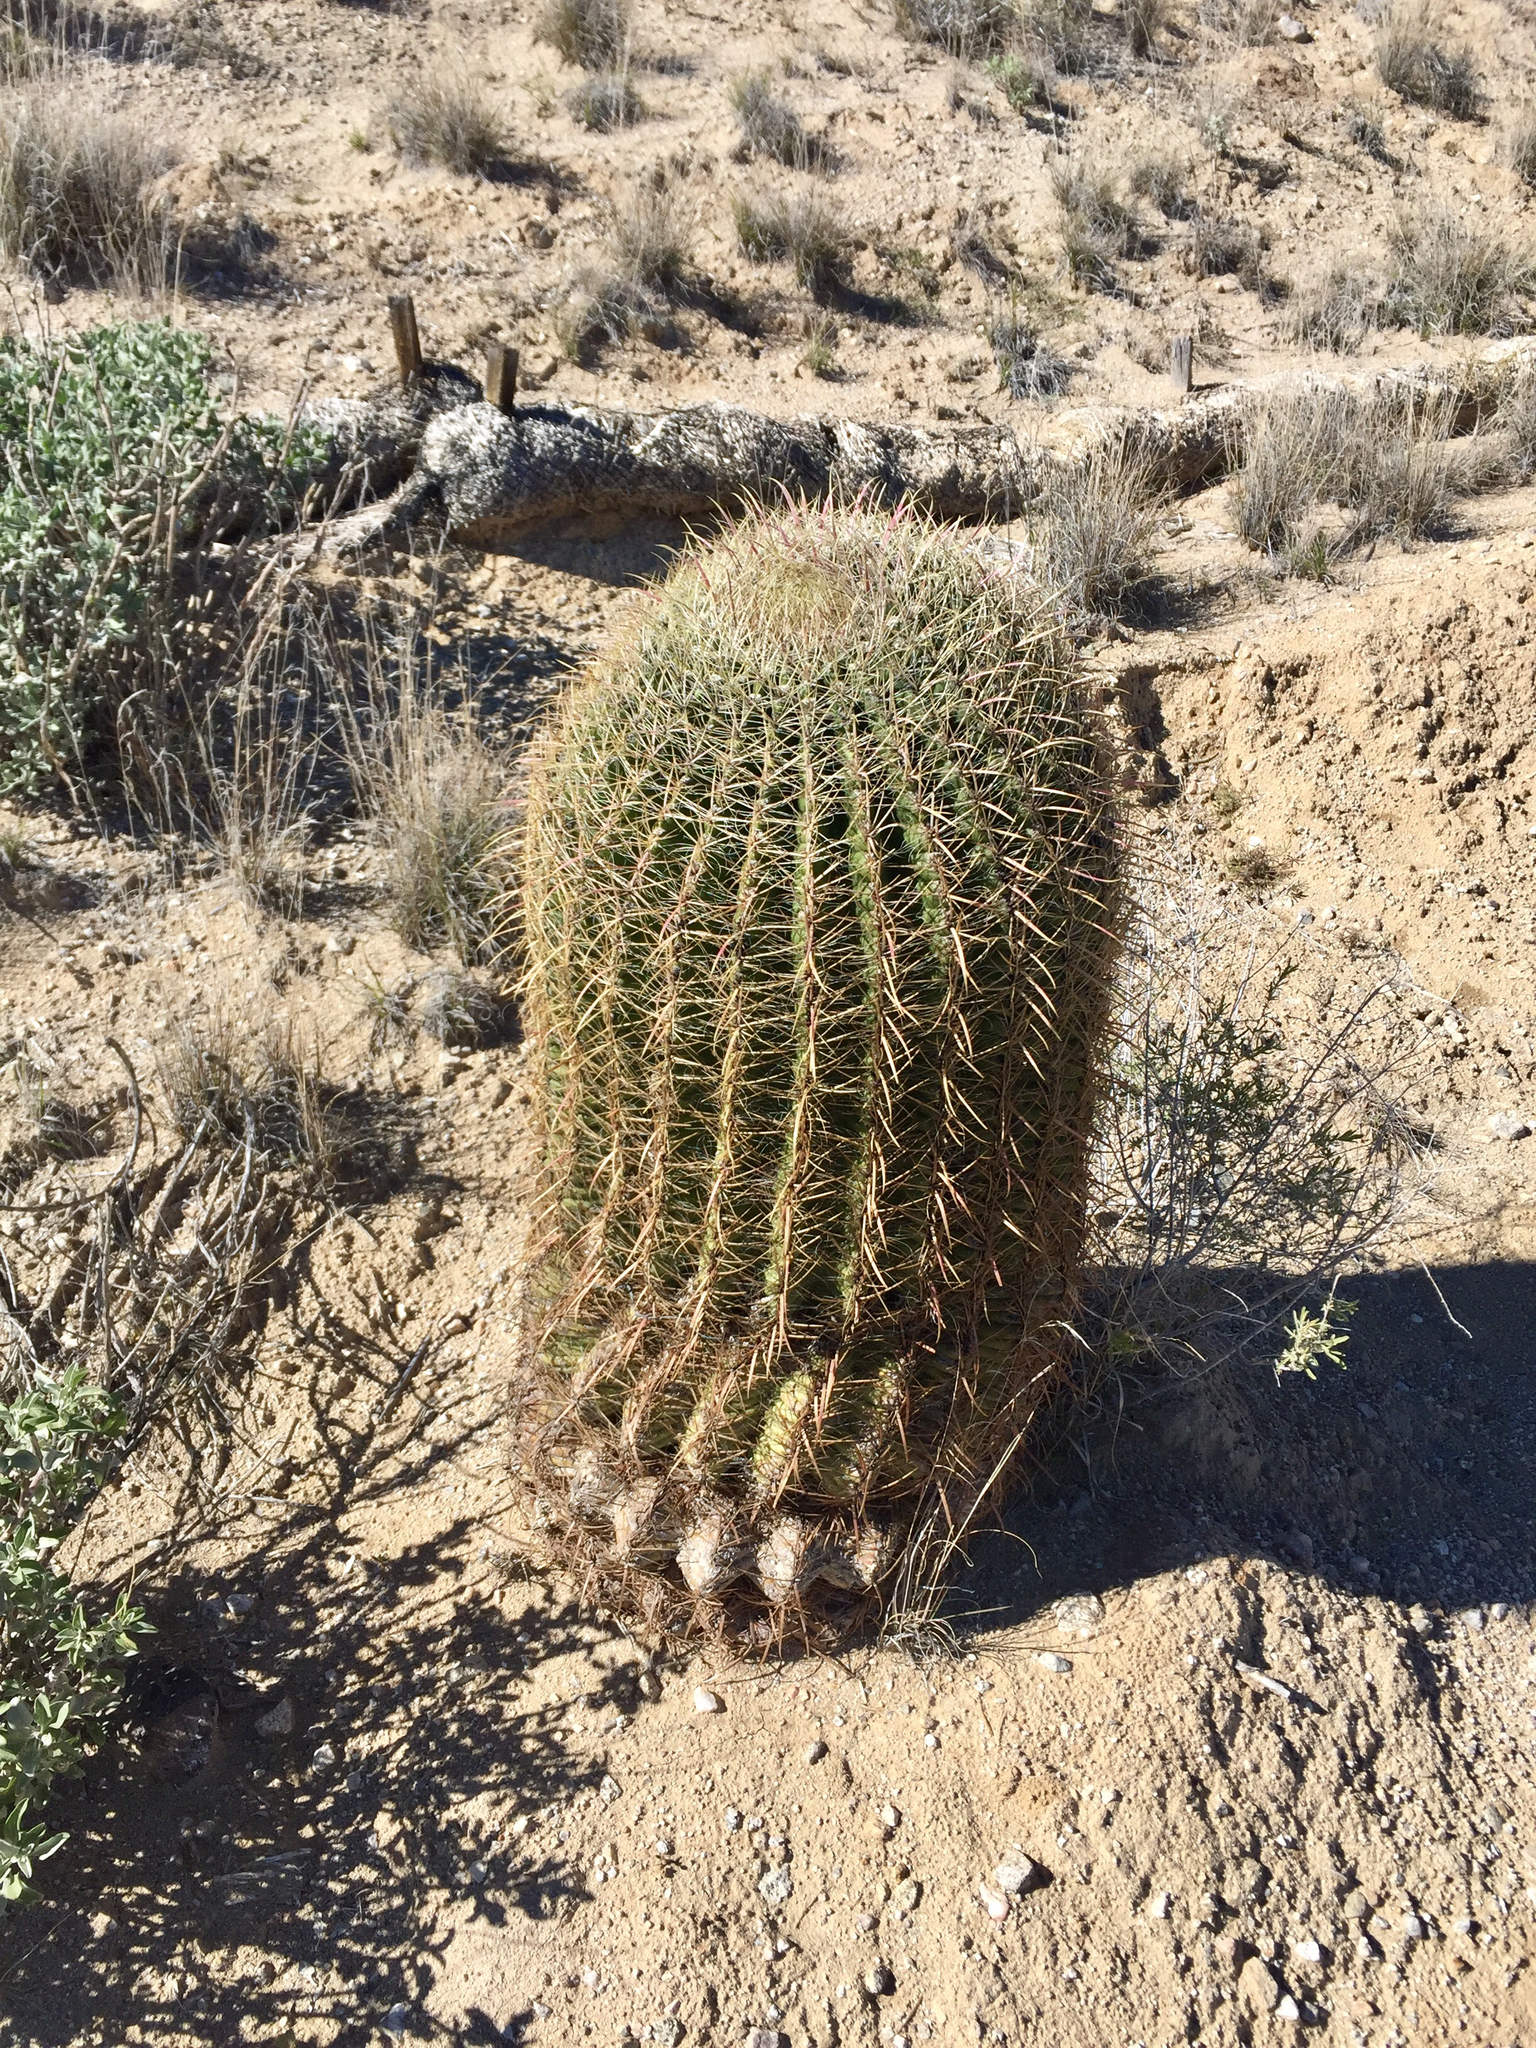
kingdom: Plantae
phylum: Tracheophyta
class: Magnoliopsida
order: Caryophyllales
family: Cactaceae
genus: Ferocactus
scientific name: Ferocactus cylindraceus
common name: California barrel cactus
